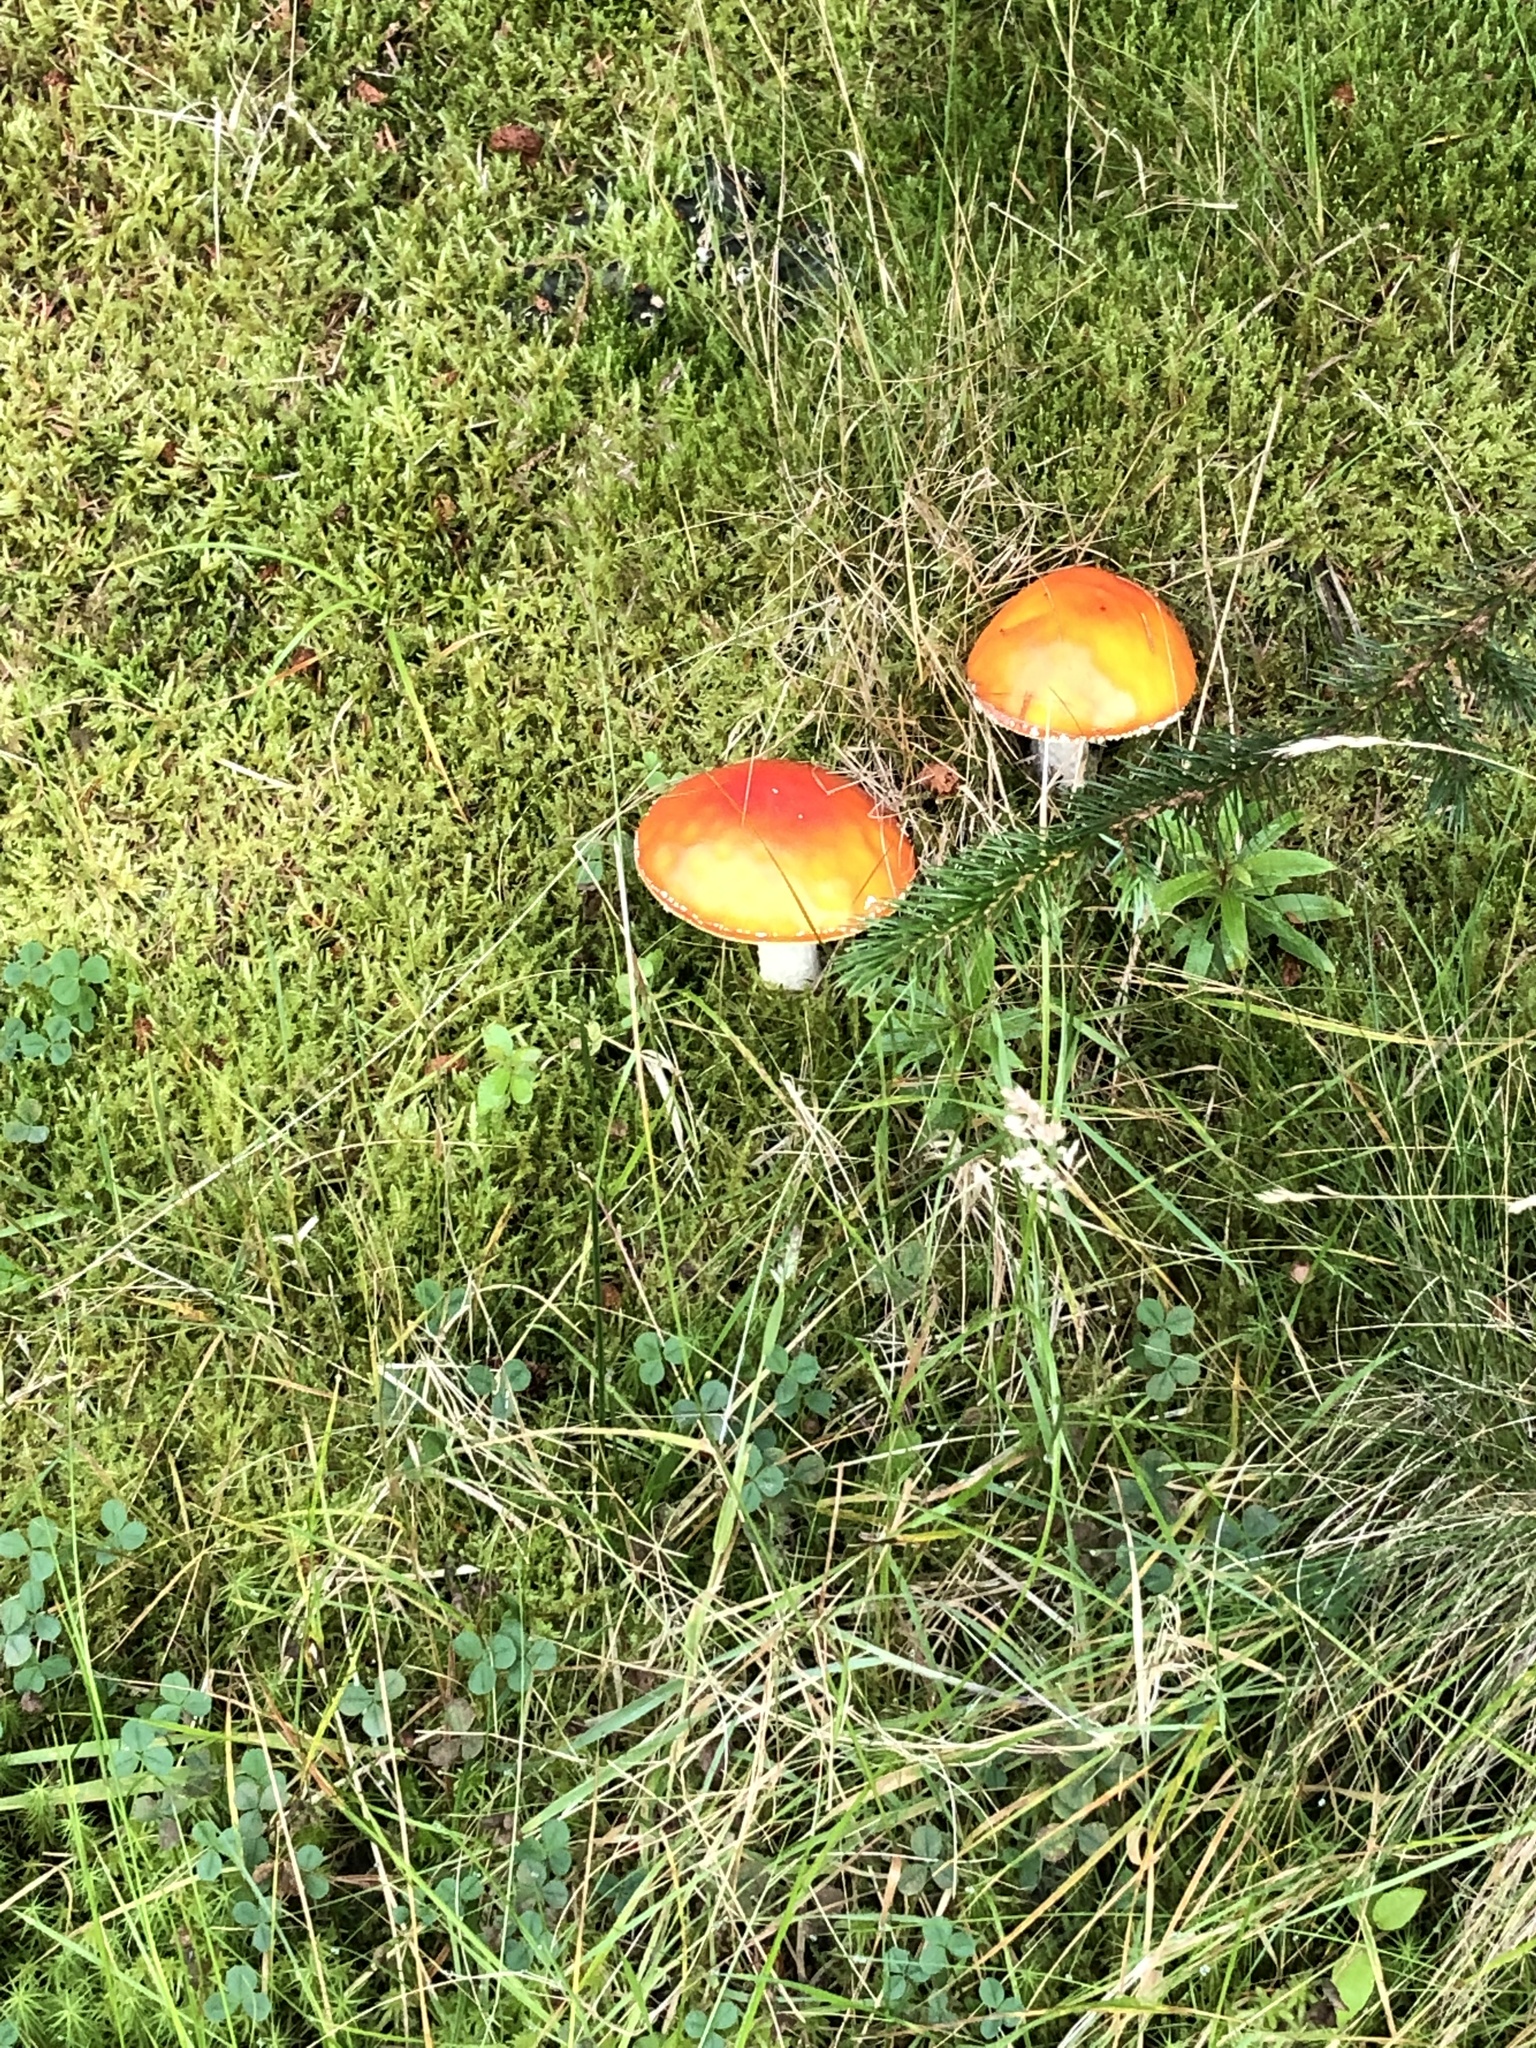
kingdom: Fungi
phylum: Basidiomycota
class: Agaricomycetes
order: Agaricales
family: Amanitaceae
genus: Amanita
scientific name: Amanita muscaria
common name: Fly agaric
